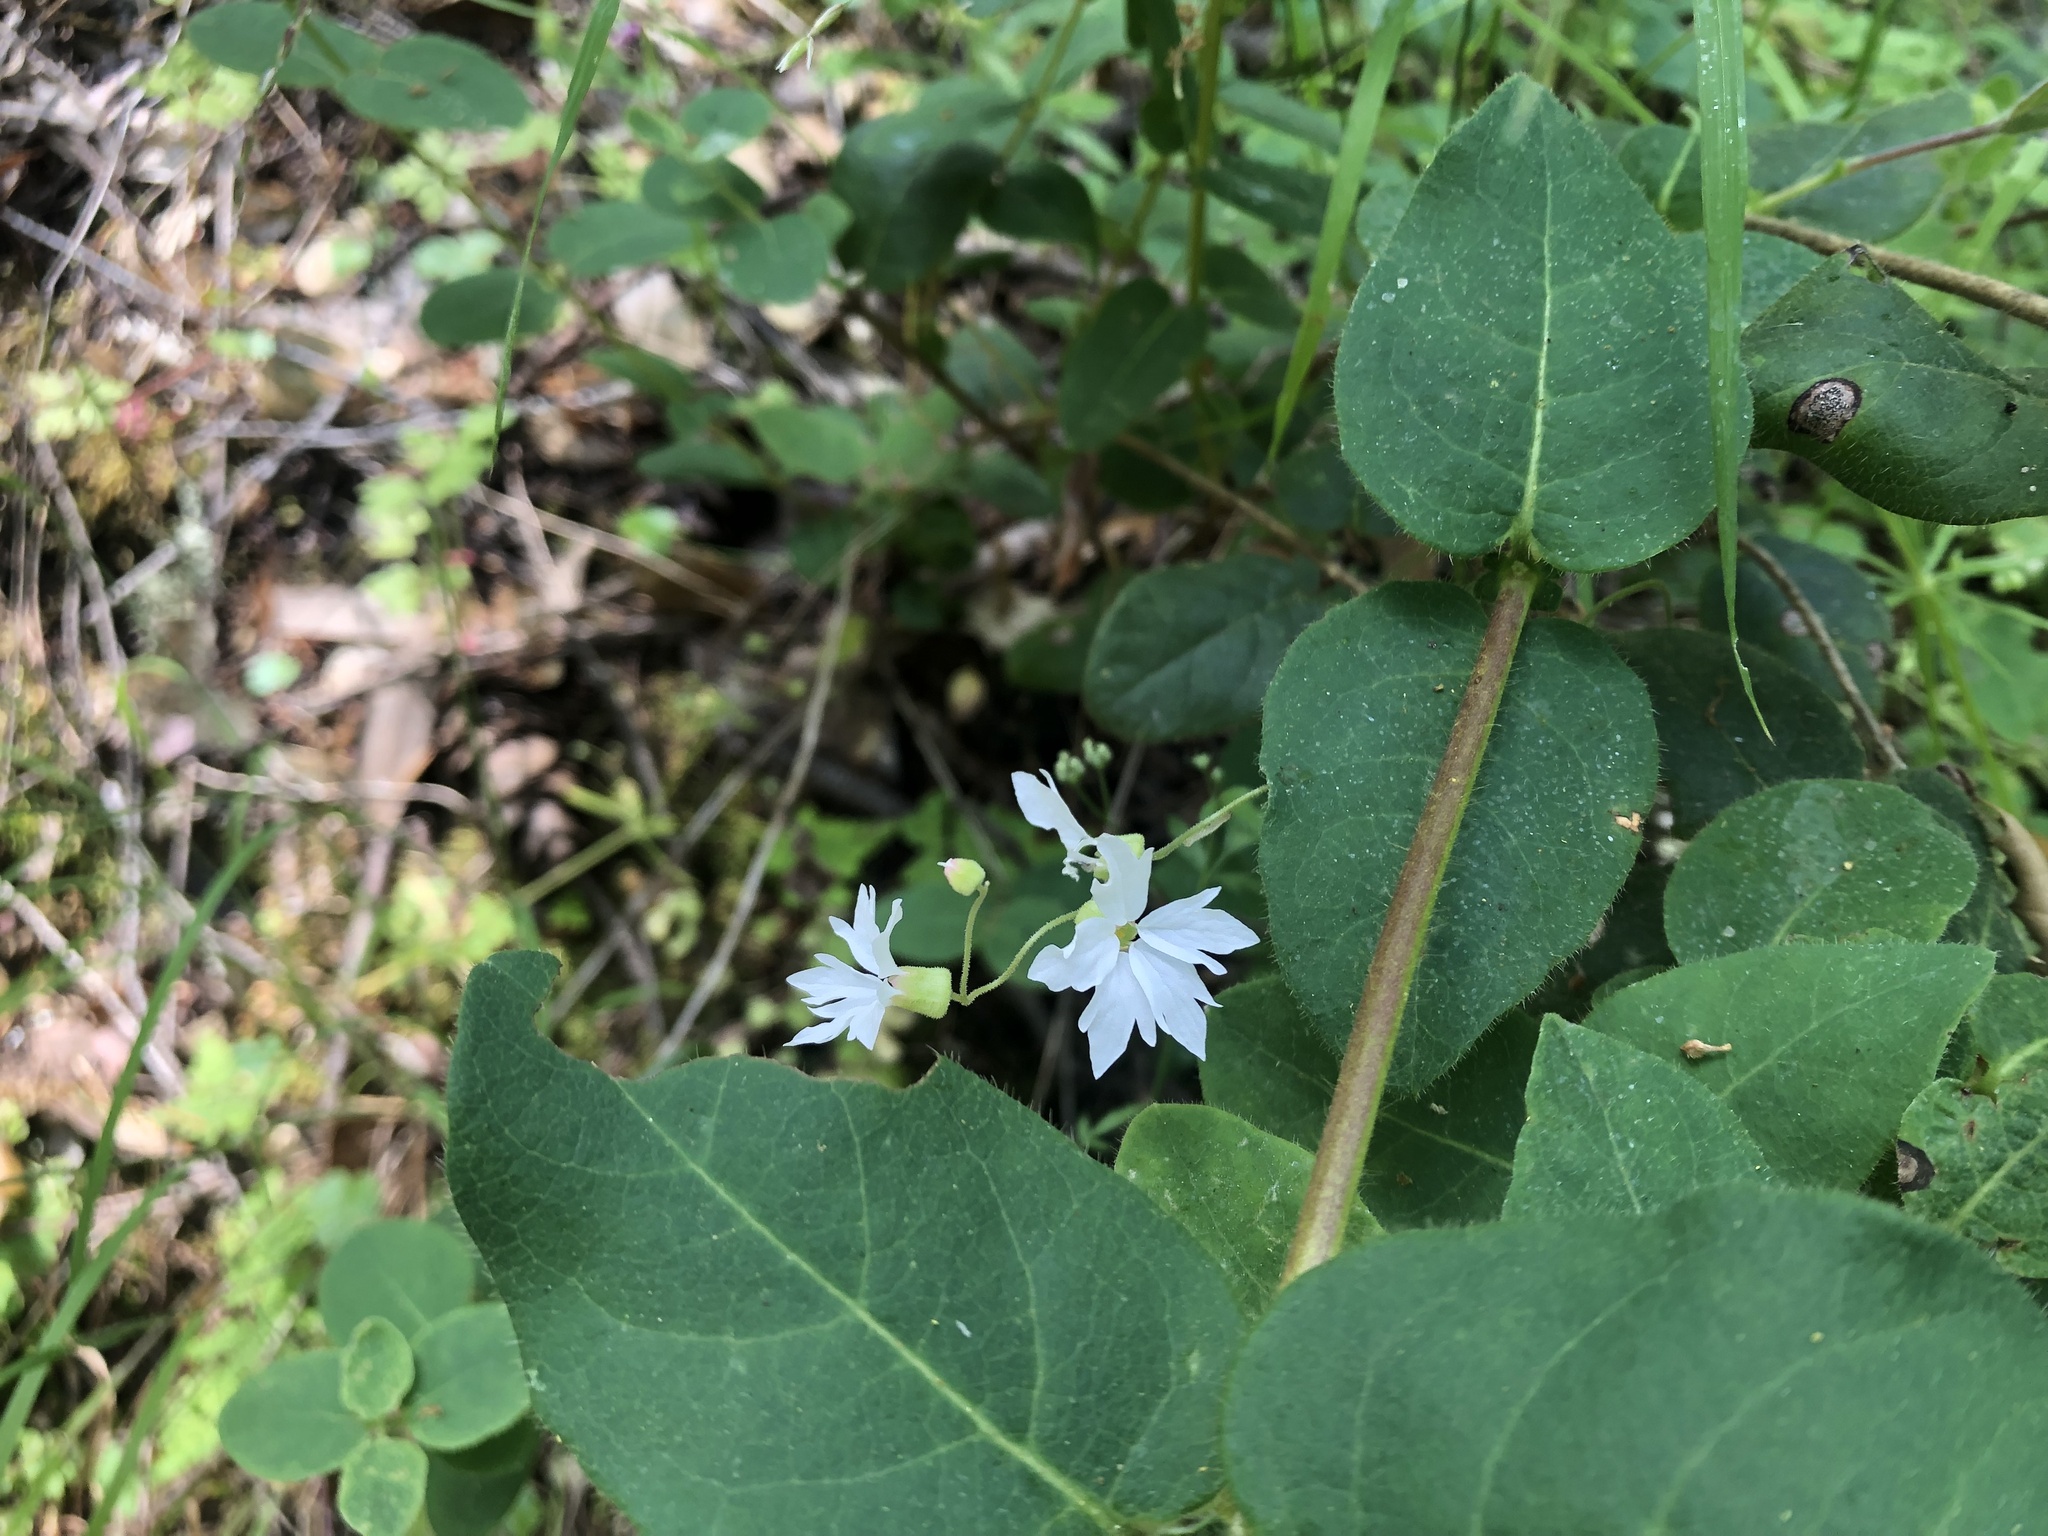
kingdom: Plantae
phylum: Tracheophyta
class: Magnoliopsida
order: Saxifragales
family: Saxifragaceae
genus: Lithophragma
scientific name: Lithophragma heterophyllum
